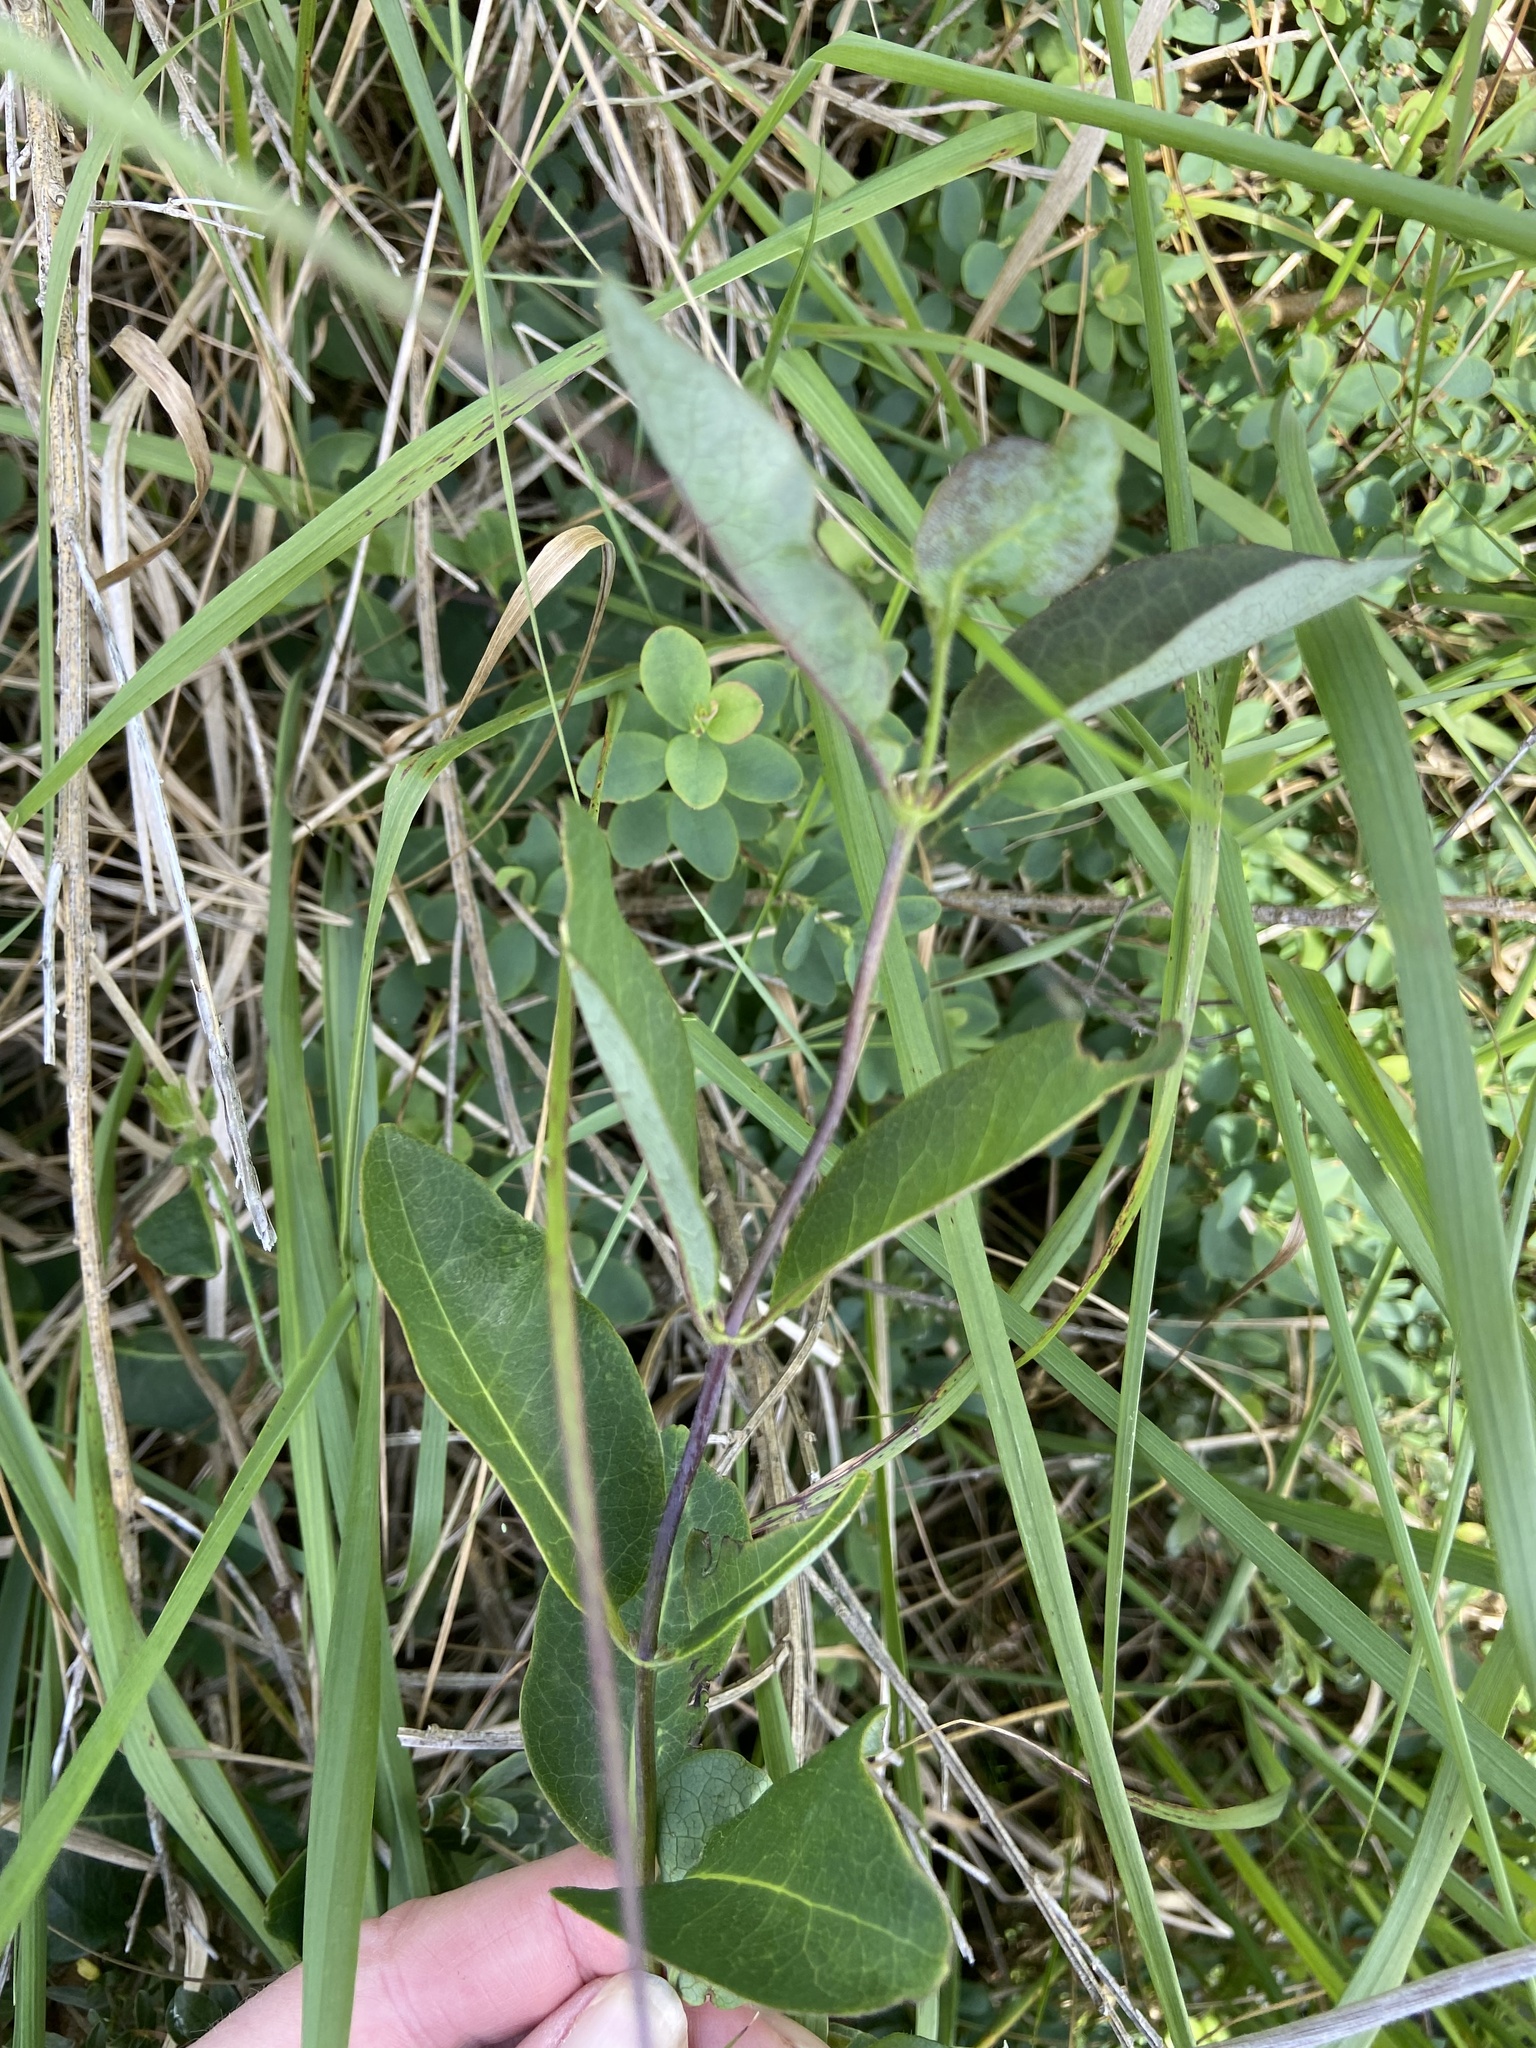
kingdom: Plantae
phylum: Tracheophyta
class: Magnoliopsida
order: Dipsacales
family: Caprifoliaceae
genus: Lonicera
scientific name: Lonicera periclymenum
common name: European honeysuckle
